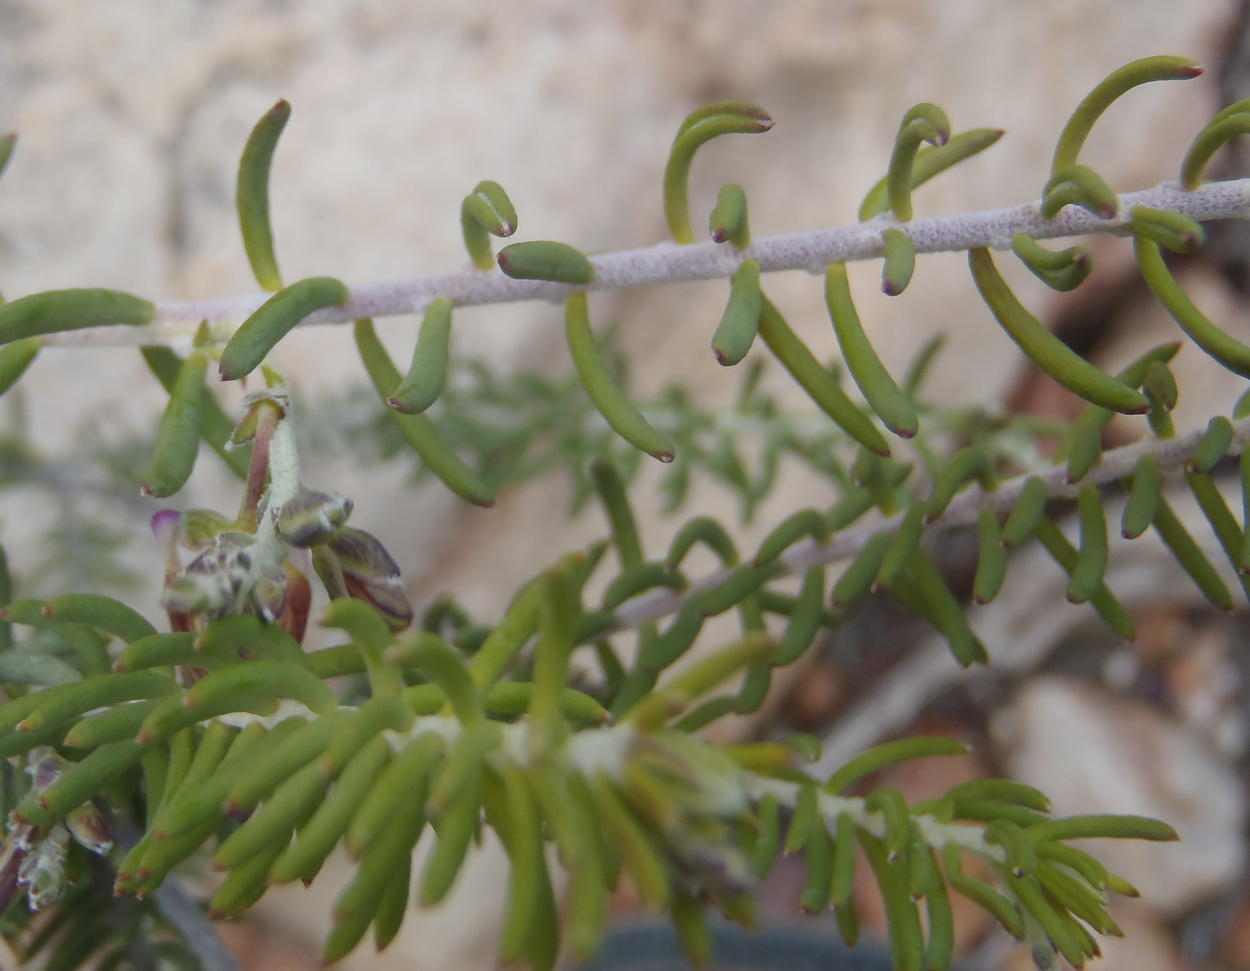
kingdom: Plantae
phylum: Tracheophyta
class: Magnoliopsida
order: Fabales
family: Polygalaceae
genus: Polygala
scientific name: Polygala teretifolia
